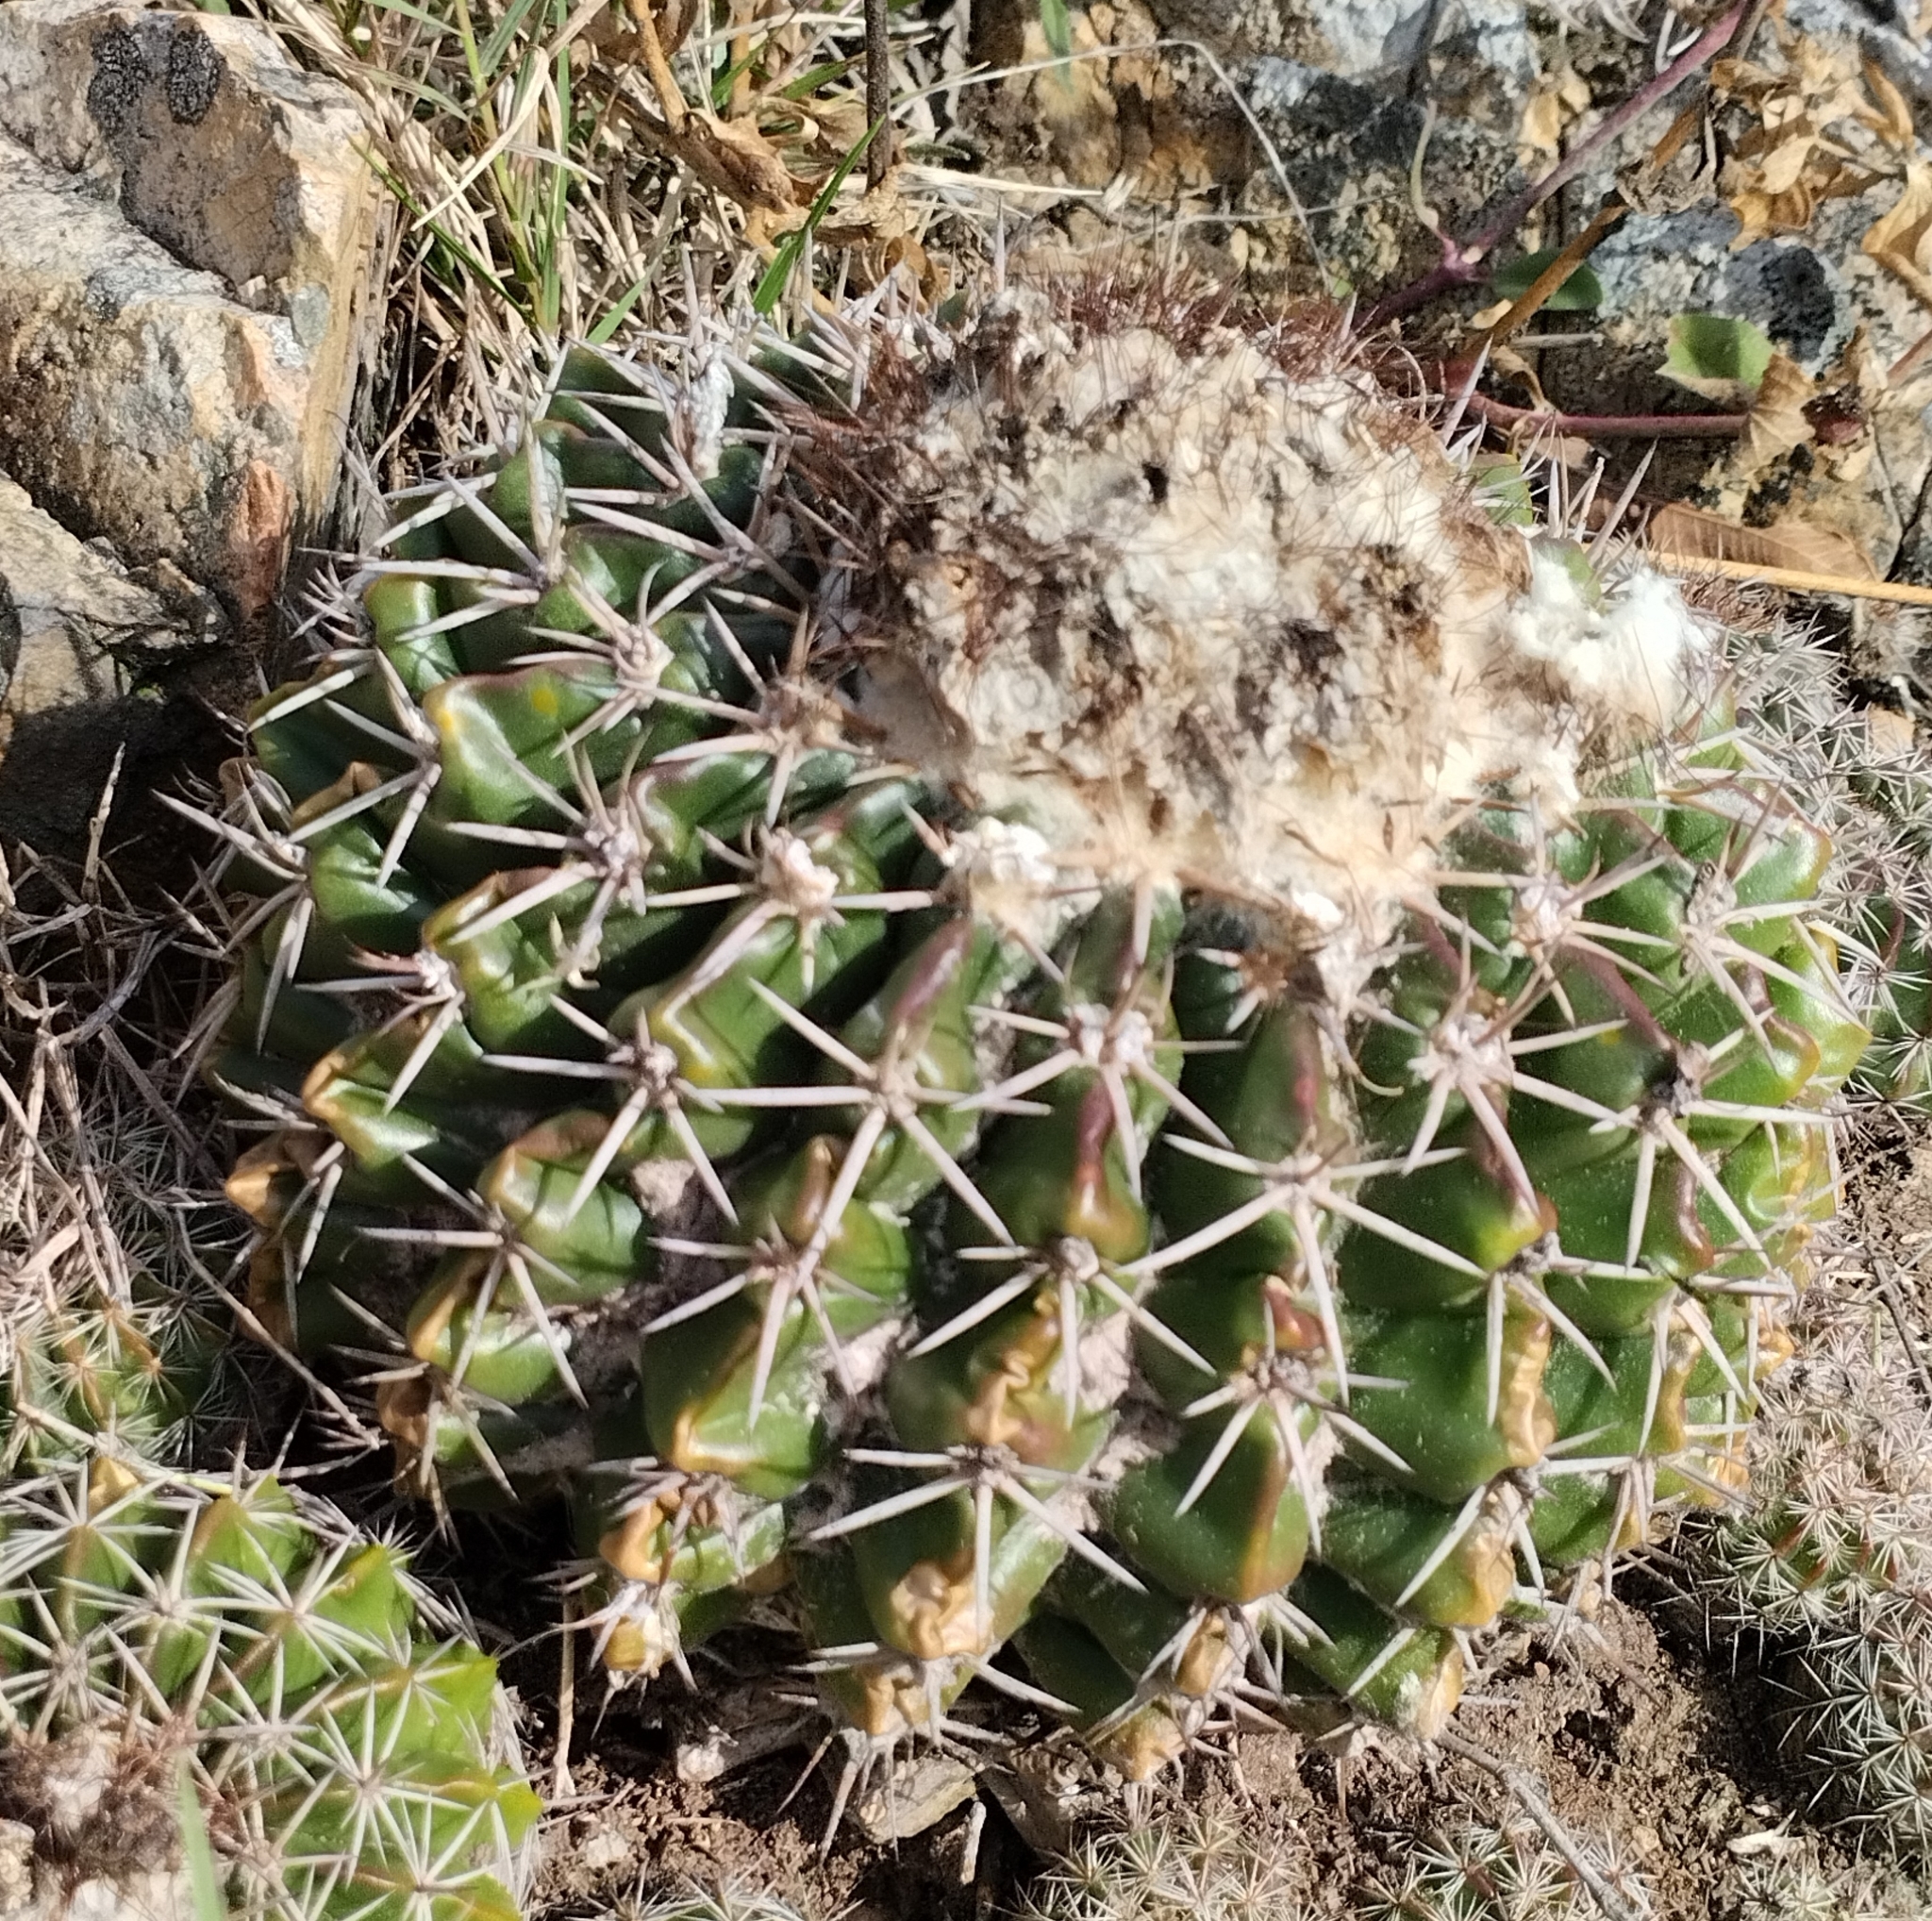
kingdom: Plantae
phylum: Tracheophyta
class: Magnoliopsida
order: Caryophyllales
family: Cactaceae
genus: Parodia
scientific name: Parodia erinacea
